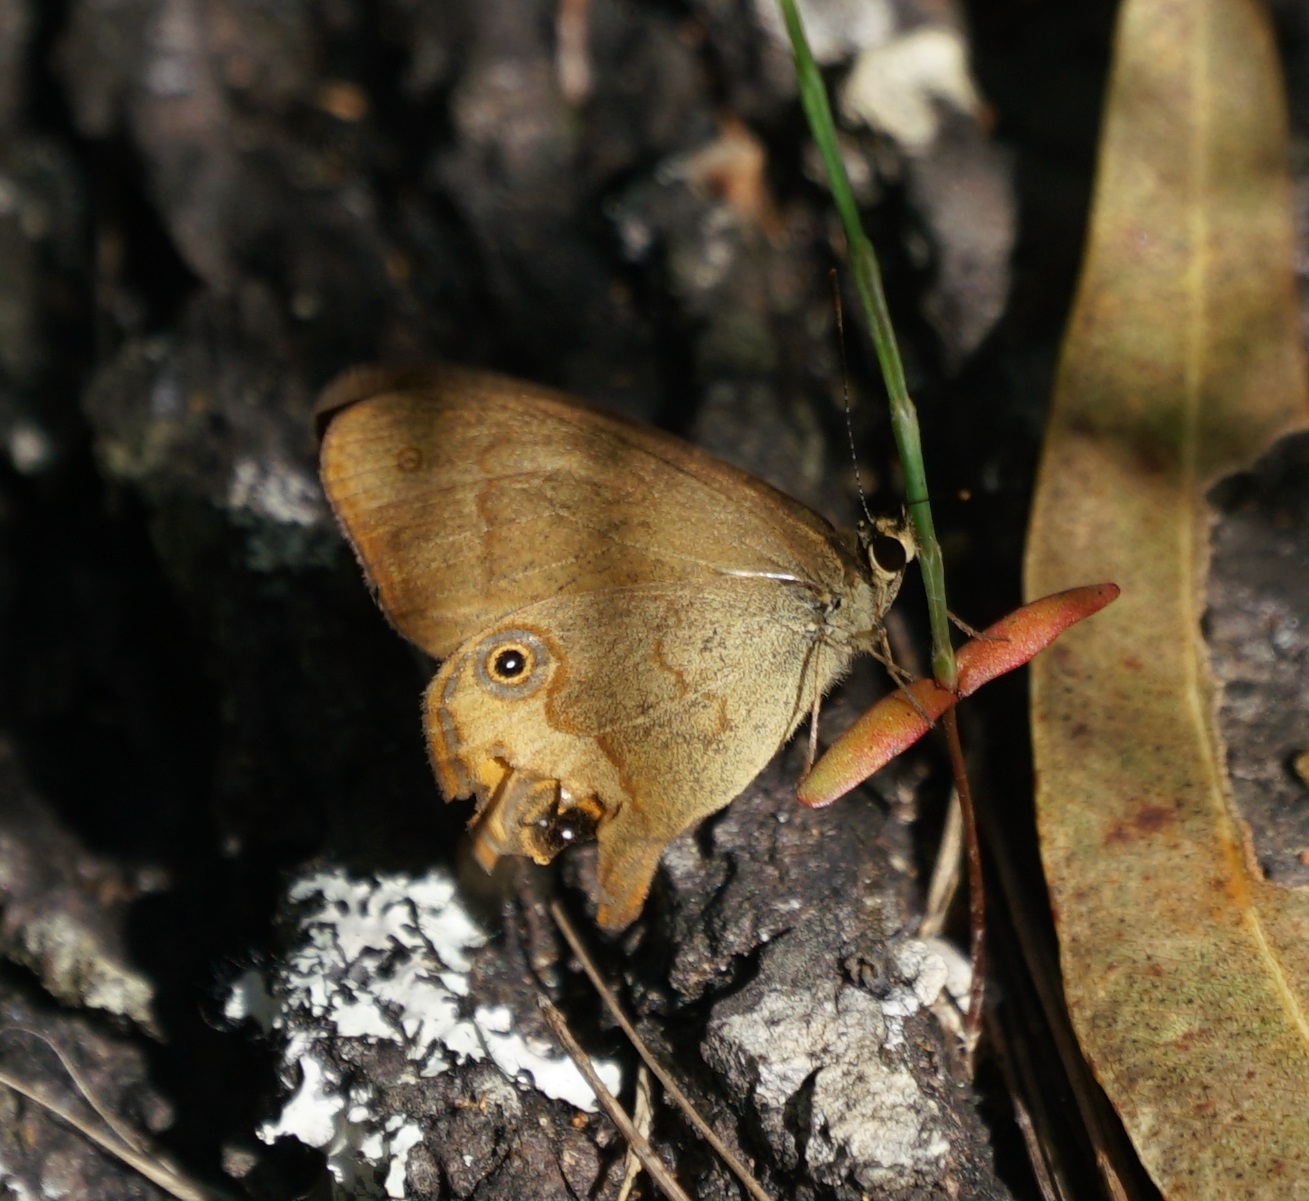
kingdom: Animalia
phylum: Arthropoda
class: Insecta
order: Lepidoptera
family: Nymphalidae
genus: Hypocysta
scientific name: Hypocysta metirius
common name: Brown ringlet
